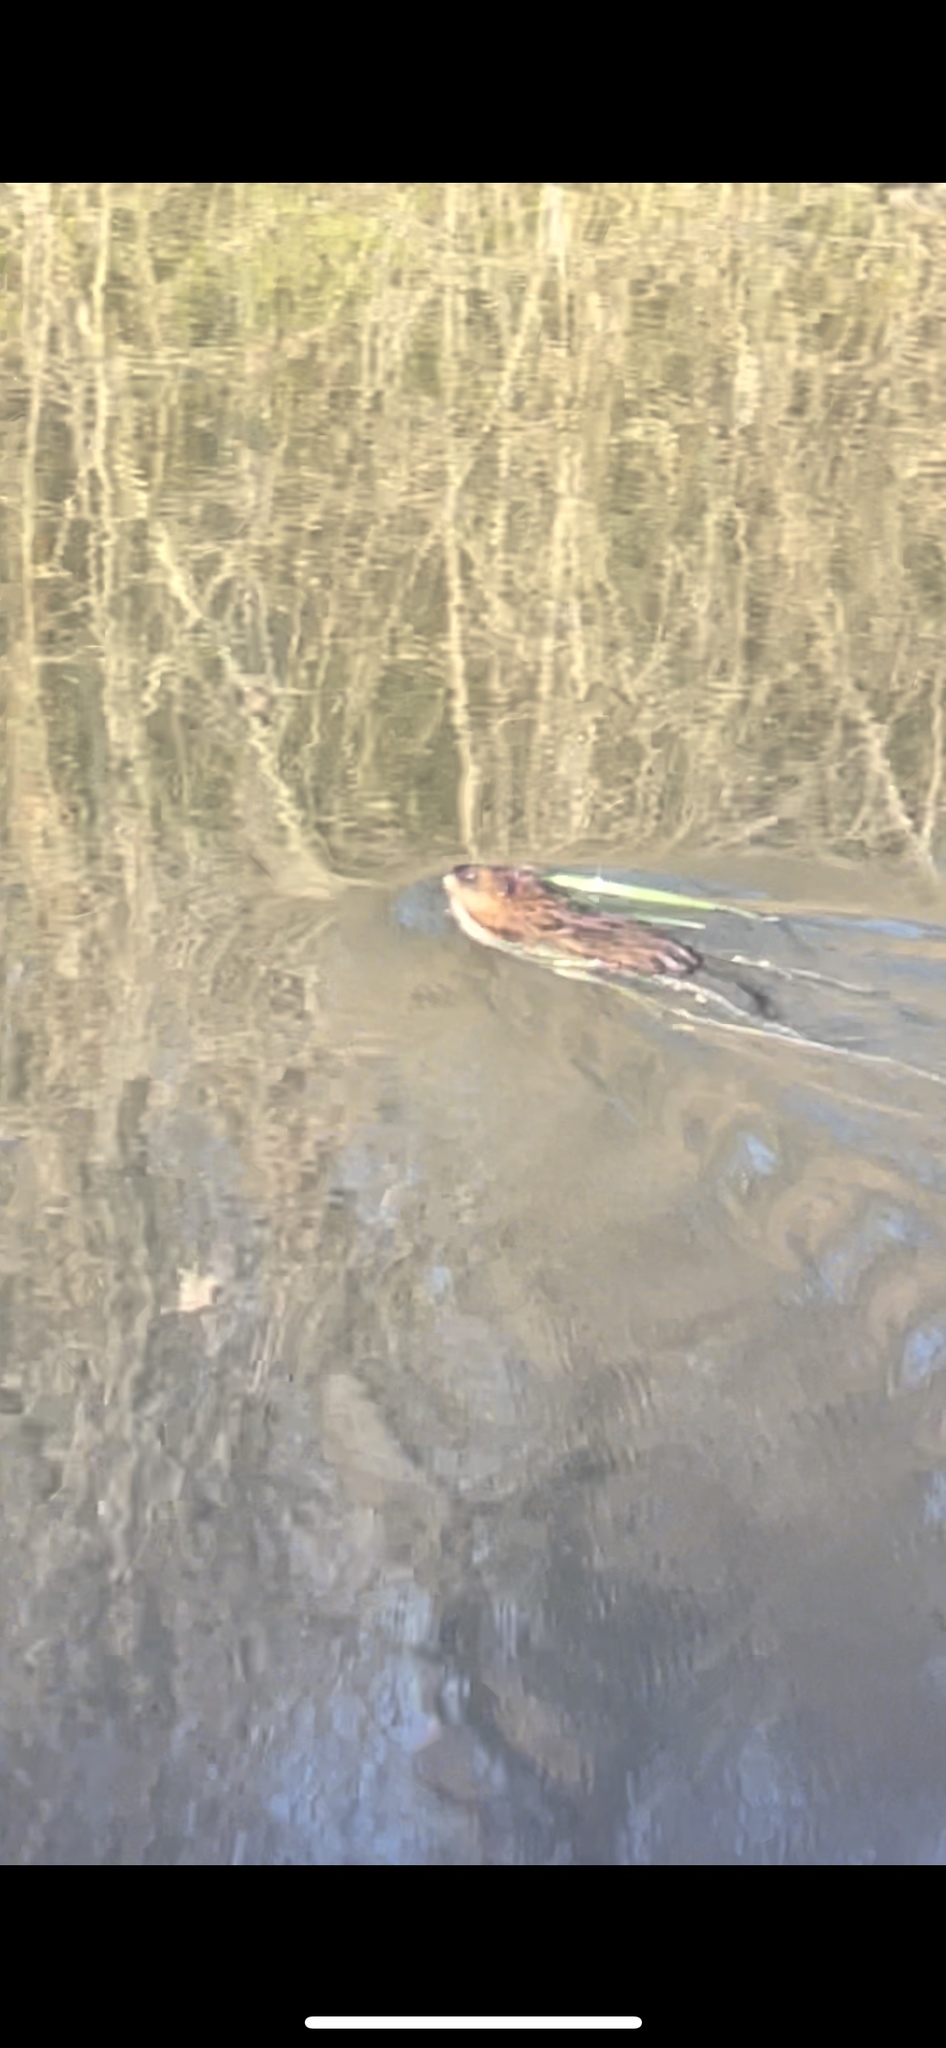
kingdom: Animalia
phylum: Chordata
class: Mammalia
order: Rodentia
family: Cricetidae
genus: Ondatra
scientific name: Ondatra zibethicus
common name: Muskrat
